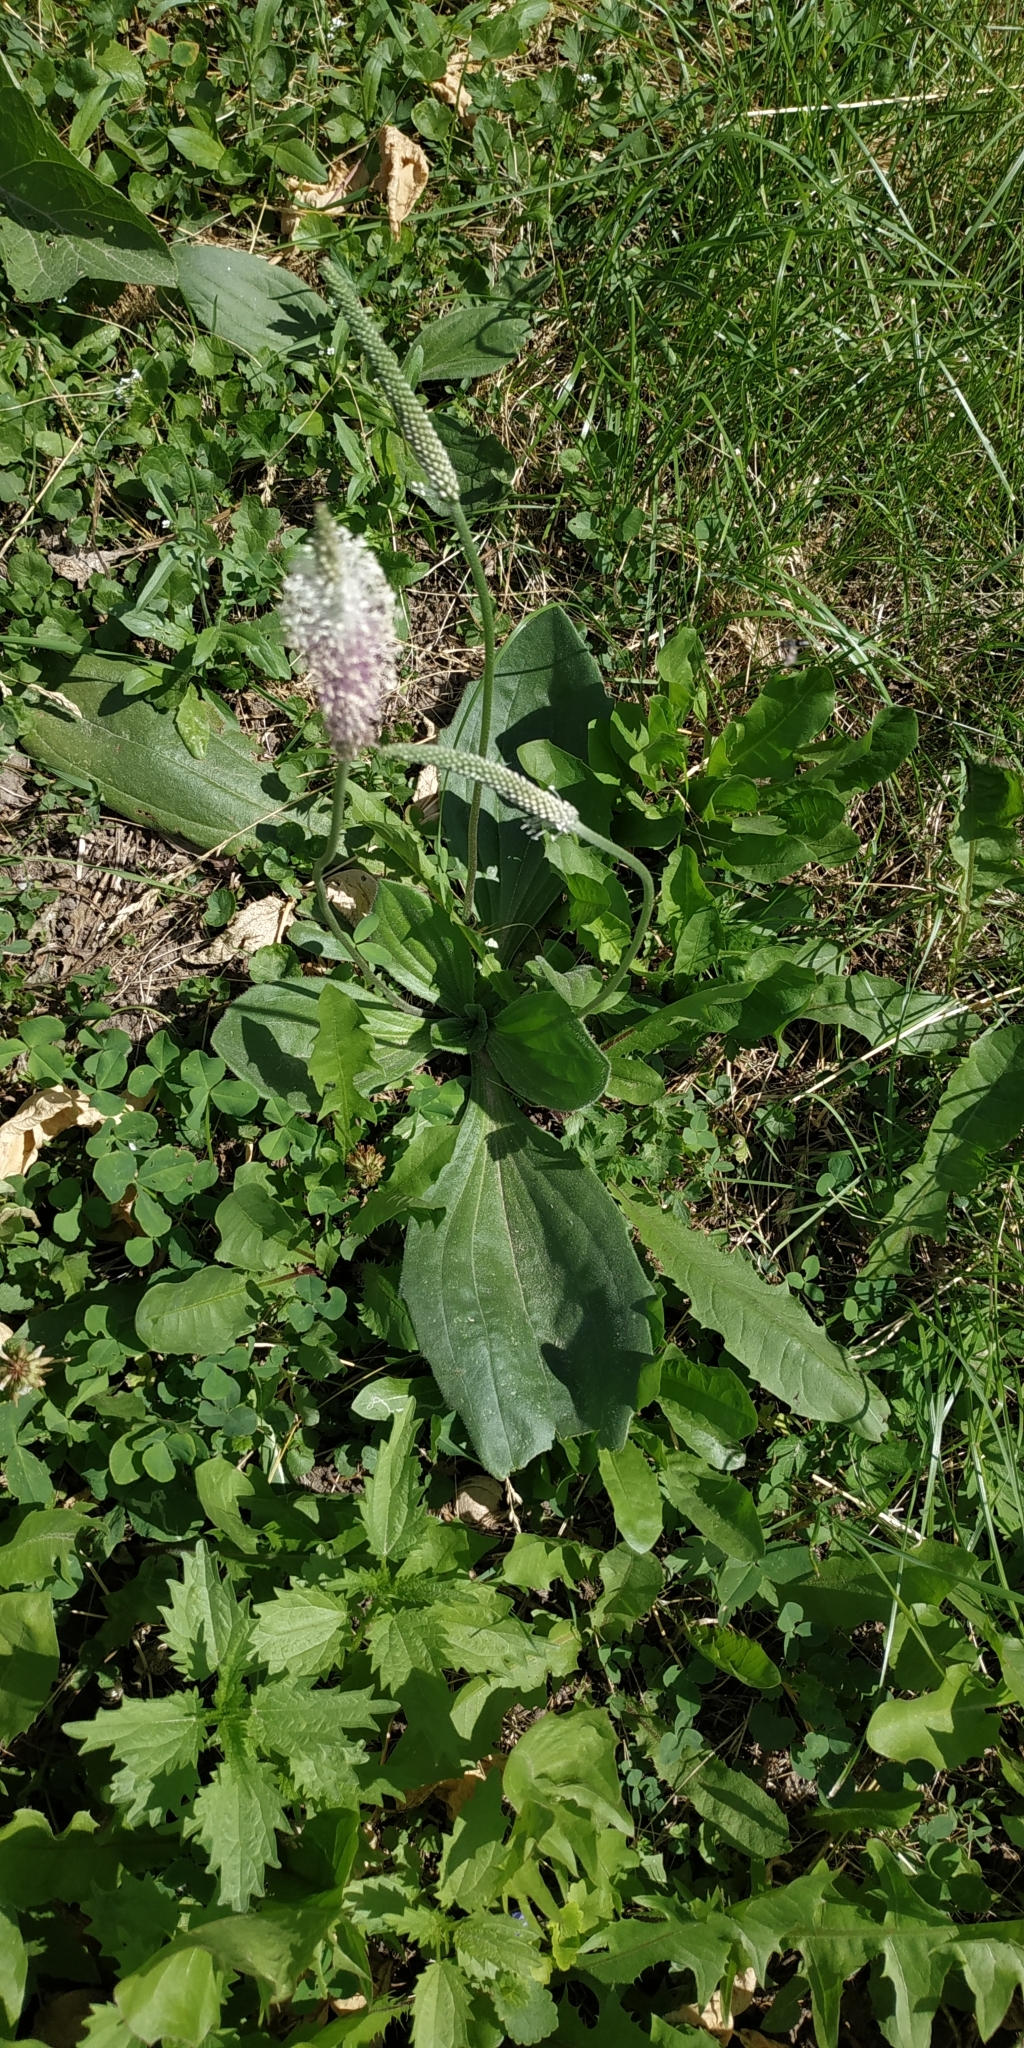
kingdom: Plantae
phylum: Tracheophyta
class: Magnoliopsida
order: Lamiales
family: Plantaginaceae
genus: Plantago
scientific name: Plantago media
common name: Hoary plantain
